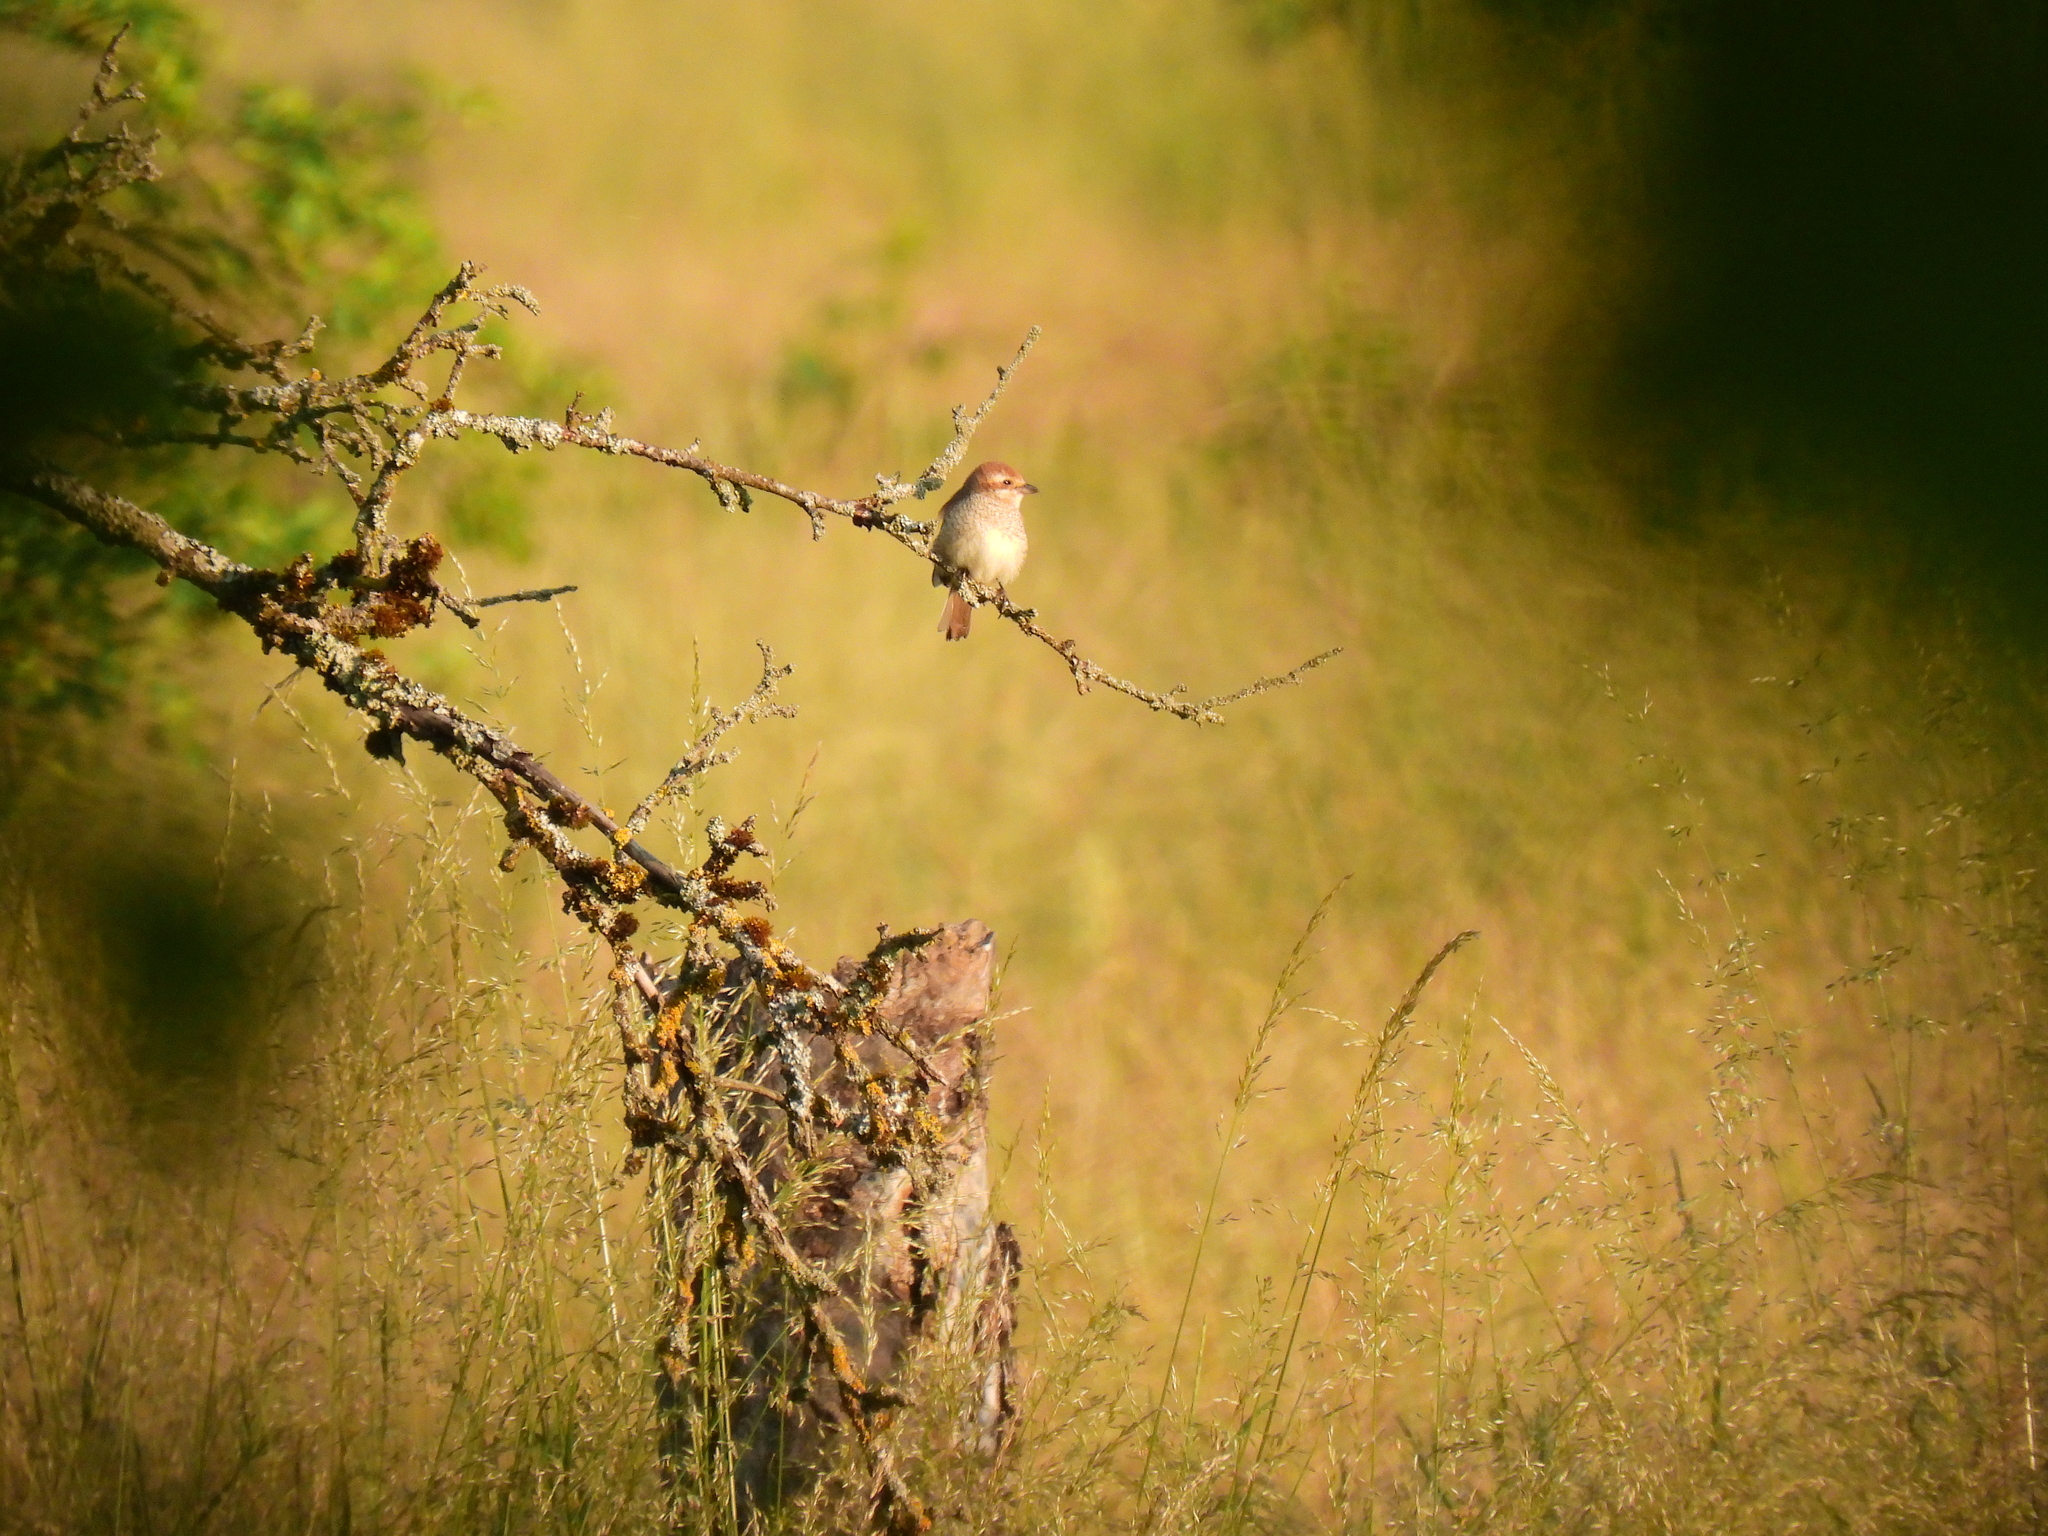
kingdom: Animalia
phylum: Chordata
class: Aves
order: Passeriformes
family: Laniidae
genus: Lanius
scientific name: Lanius collurio
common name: Red-backed shrike
